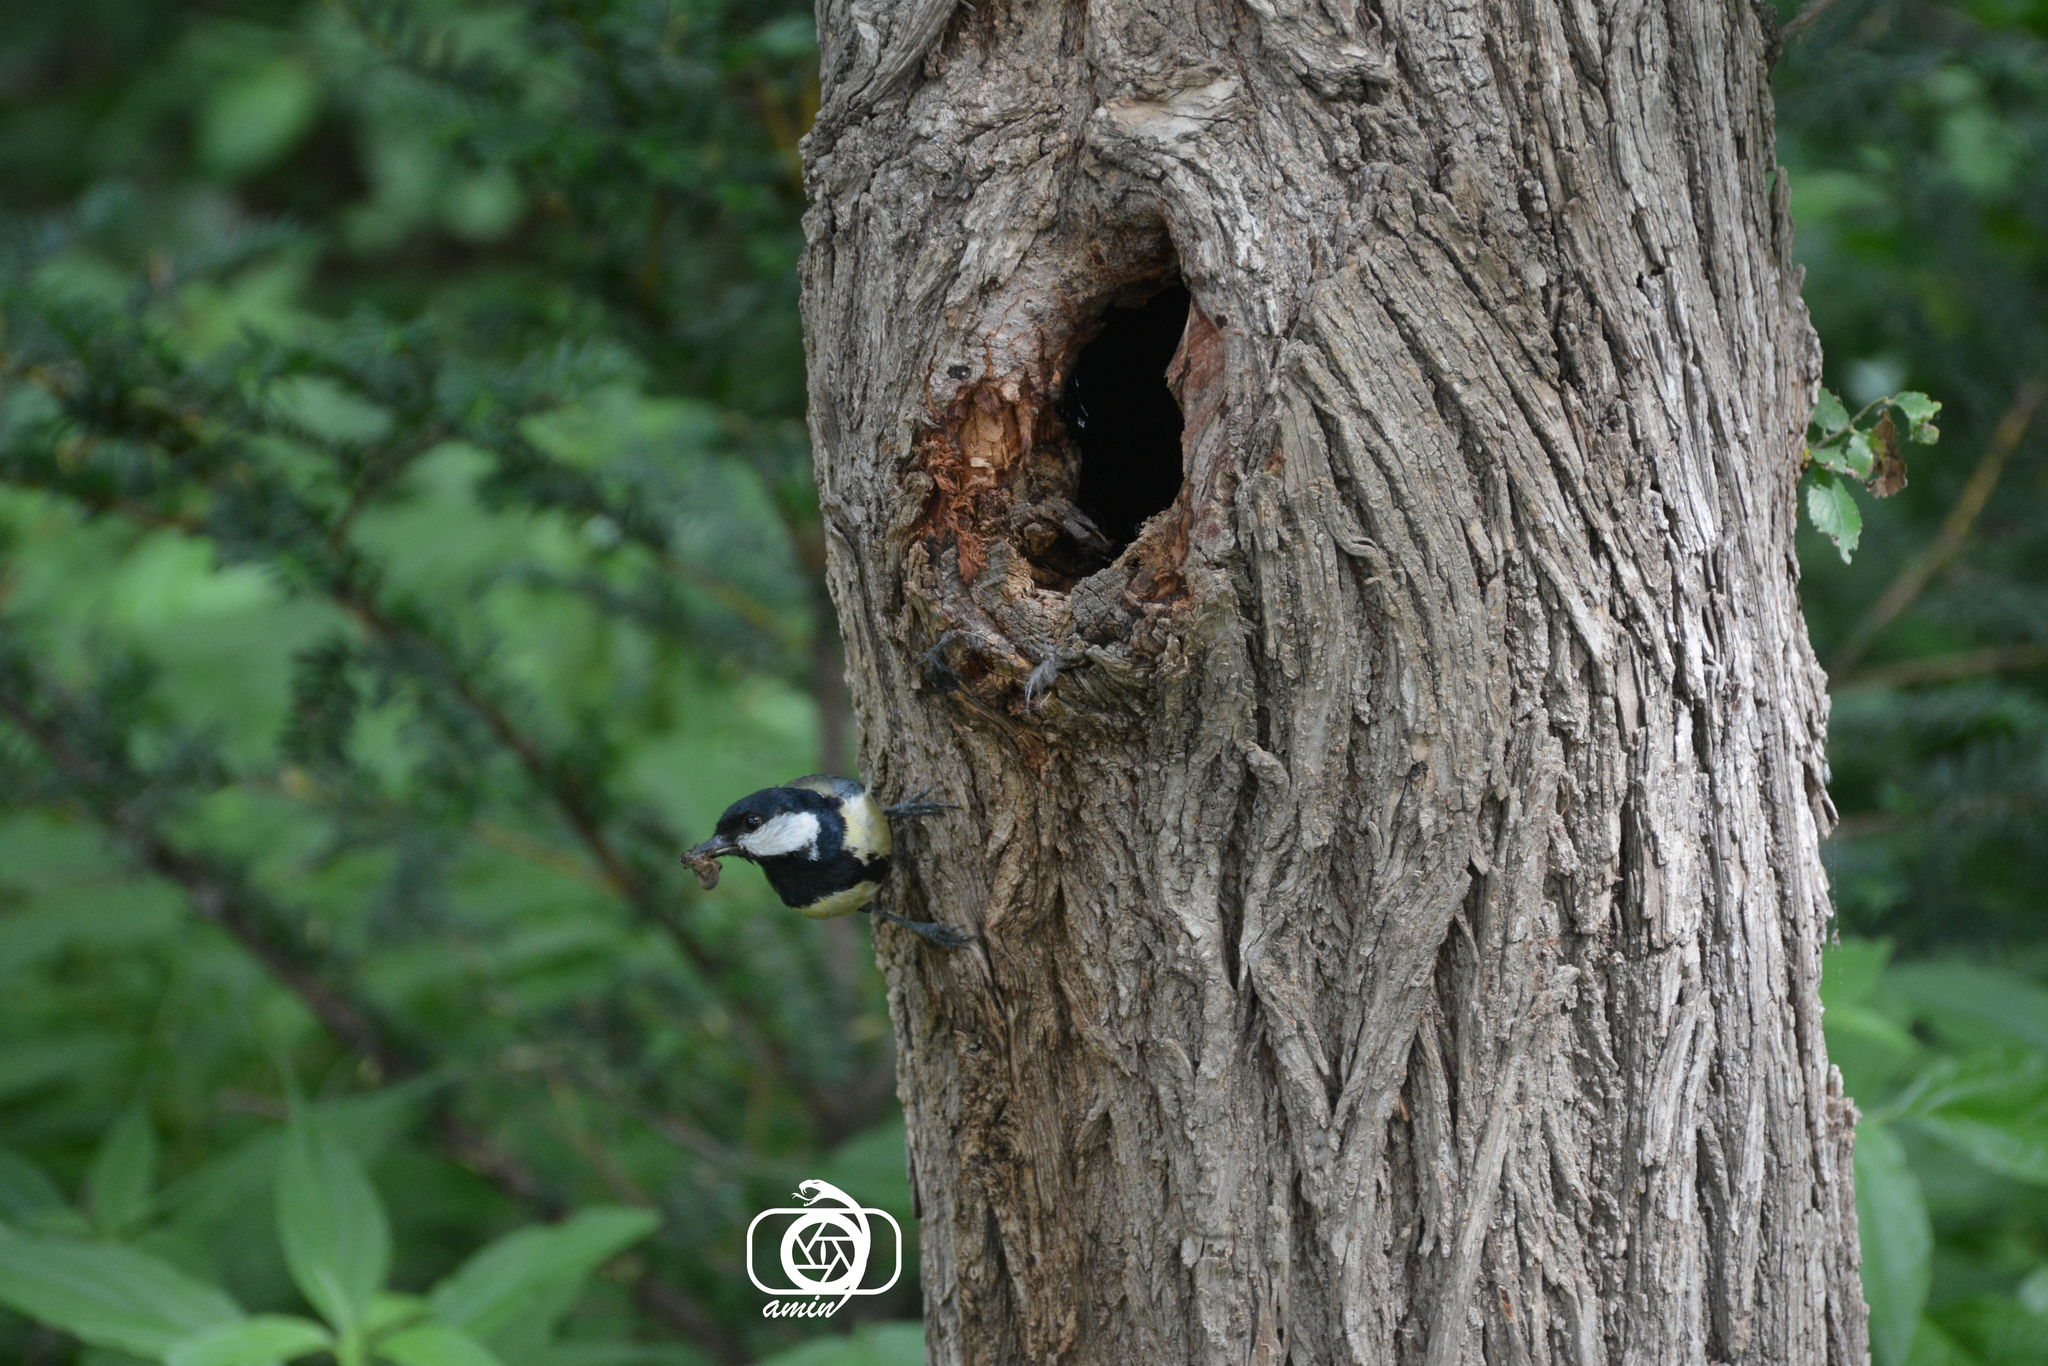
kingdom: Animalia
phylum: Chordata
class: Aves
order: Passeriformes
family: Paridae
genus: Parus
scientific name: Parus major
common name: Great tit
